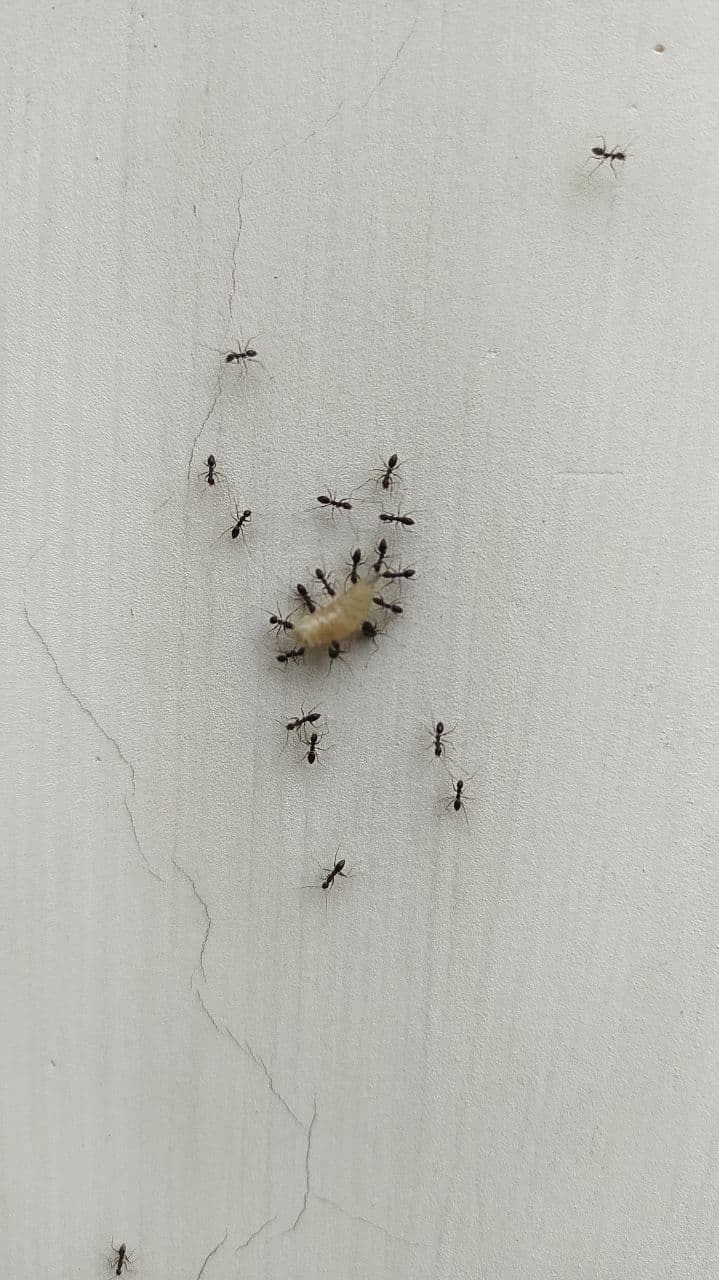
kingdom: Animalia
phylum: Arthropoda
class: Insecta
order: Hymenoptera
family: Formicidae
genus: Paratrechina
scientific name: Paratrechina longicornis
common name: Longhorned crazy ant
